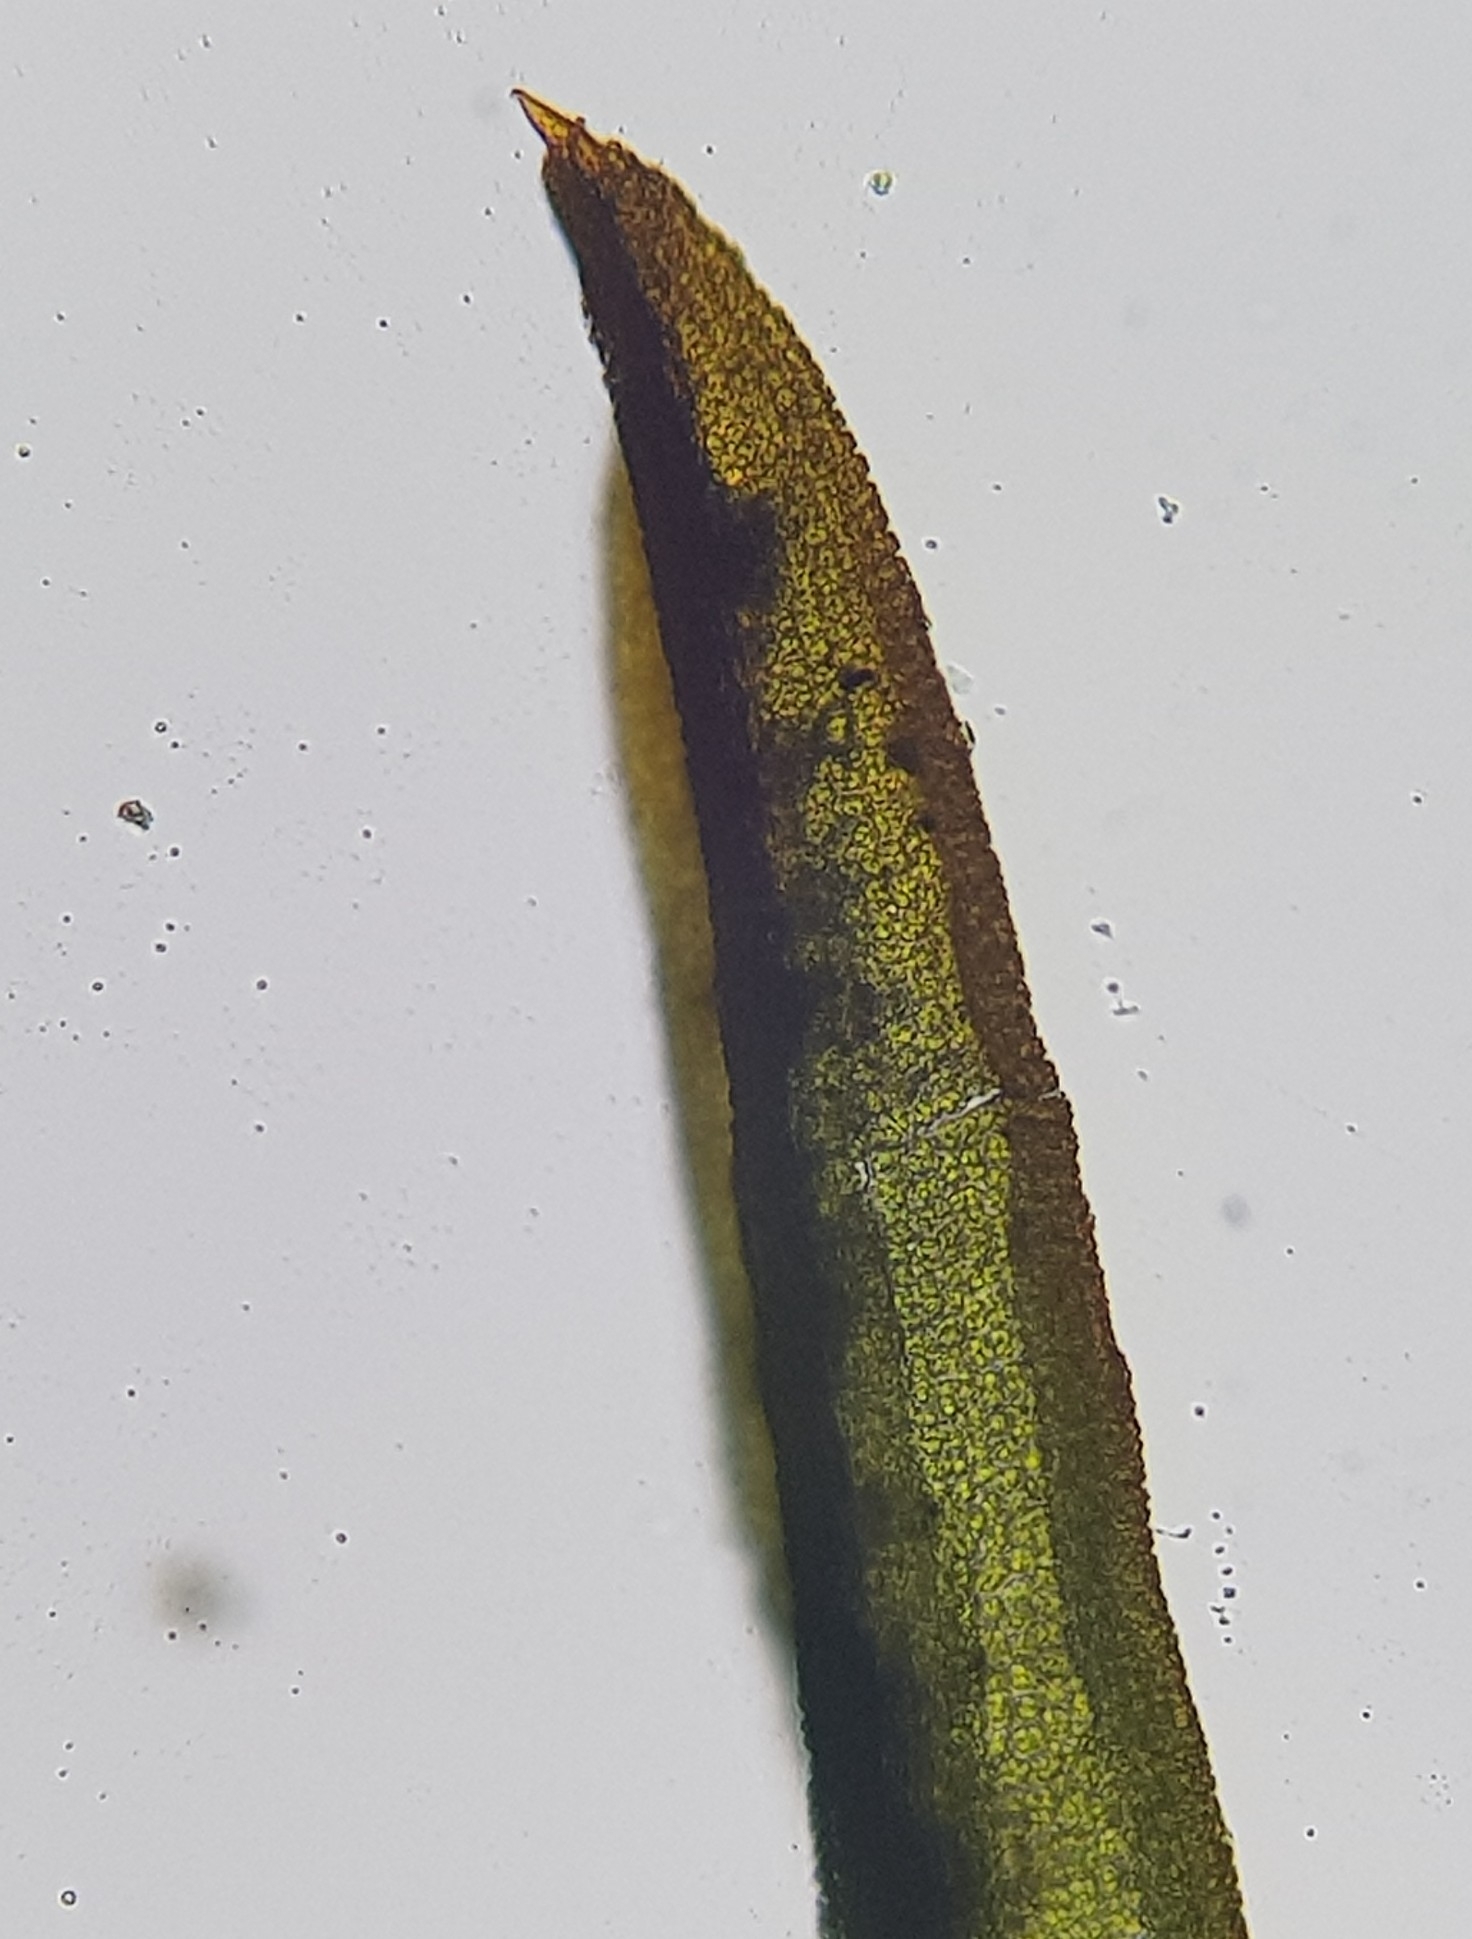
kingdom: Plantae
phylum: Bryophyta
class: Bryopsida
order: Pottiales
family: Pottiaceae
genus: Bryoerythrophyllum
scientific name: Bryoerythrophyllum recurvirostrum
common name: Red beard moss
